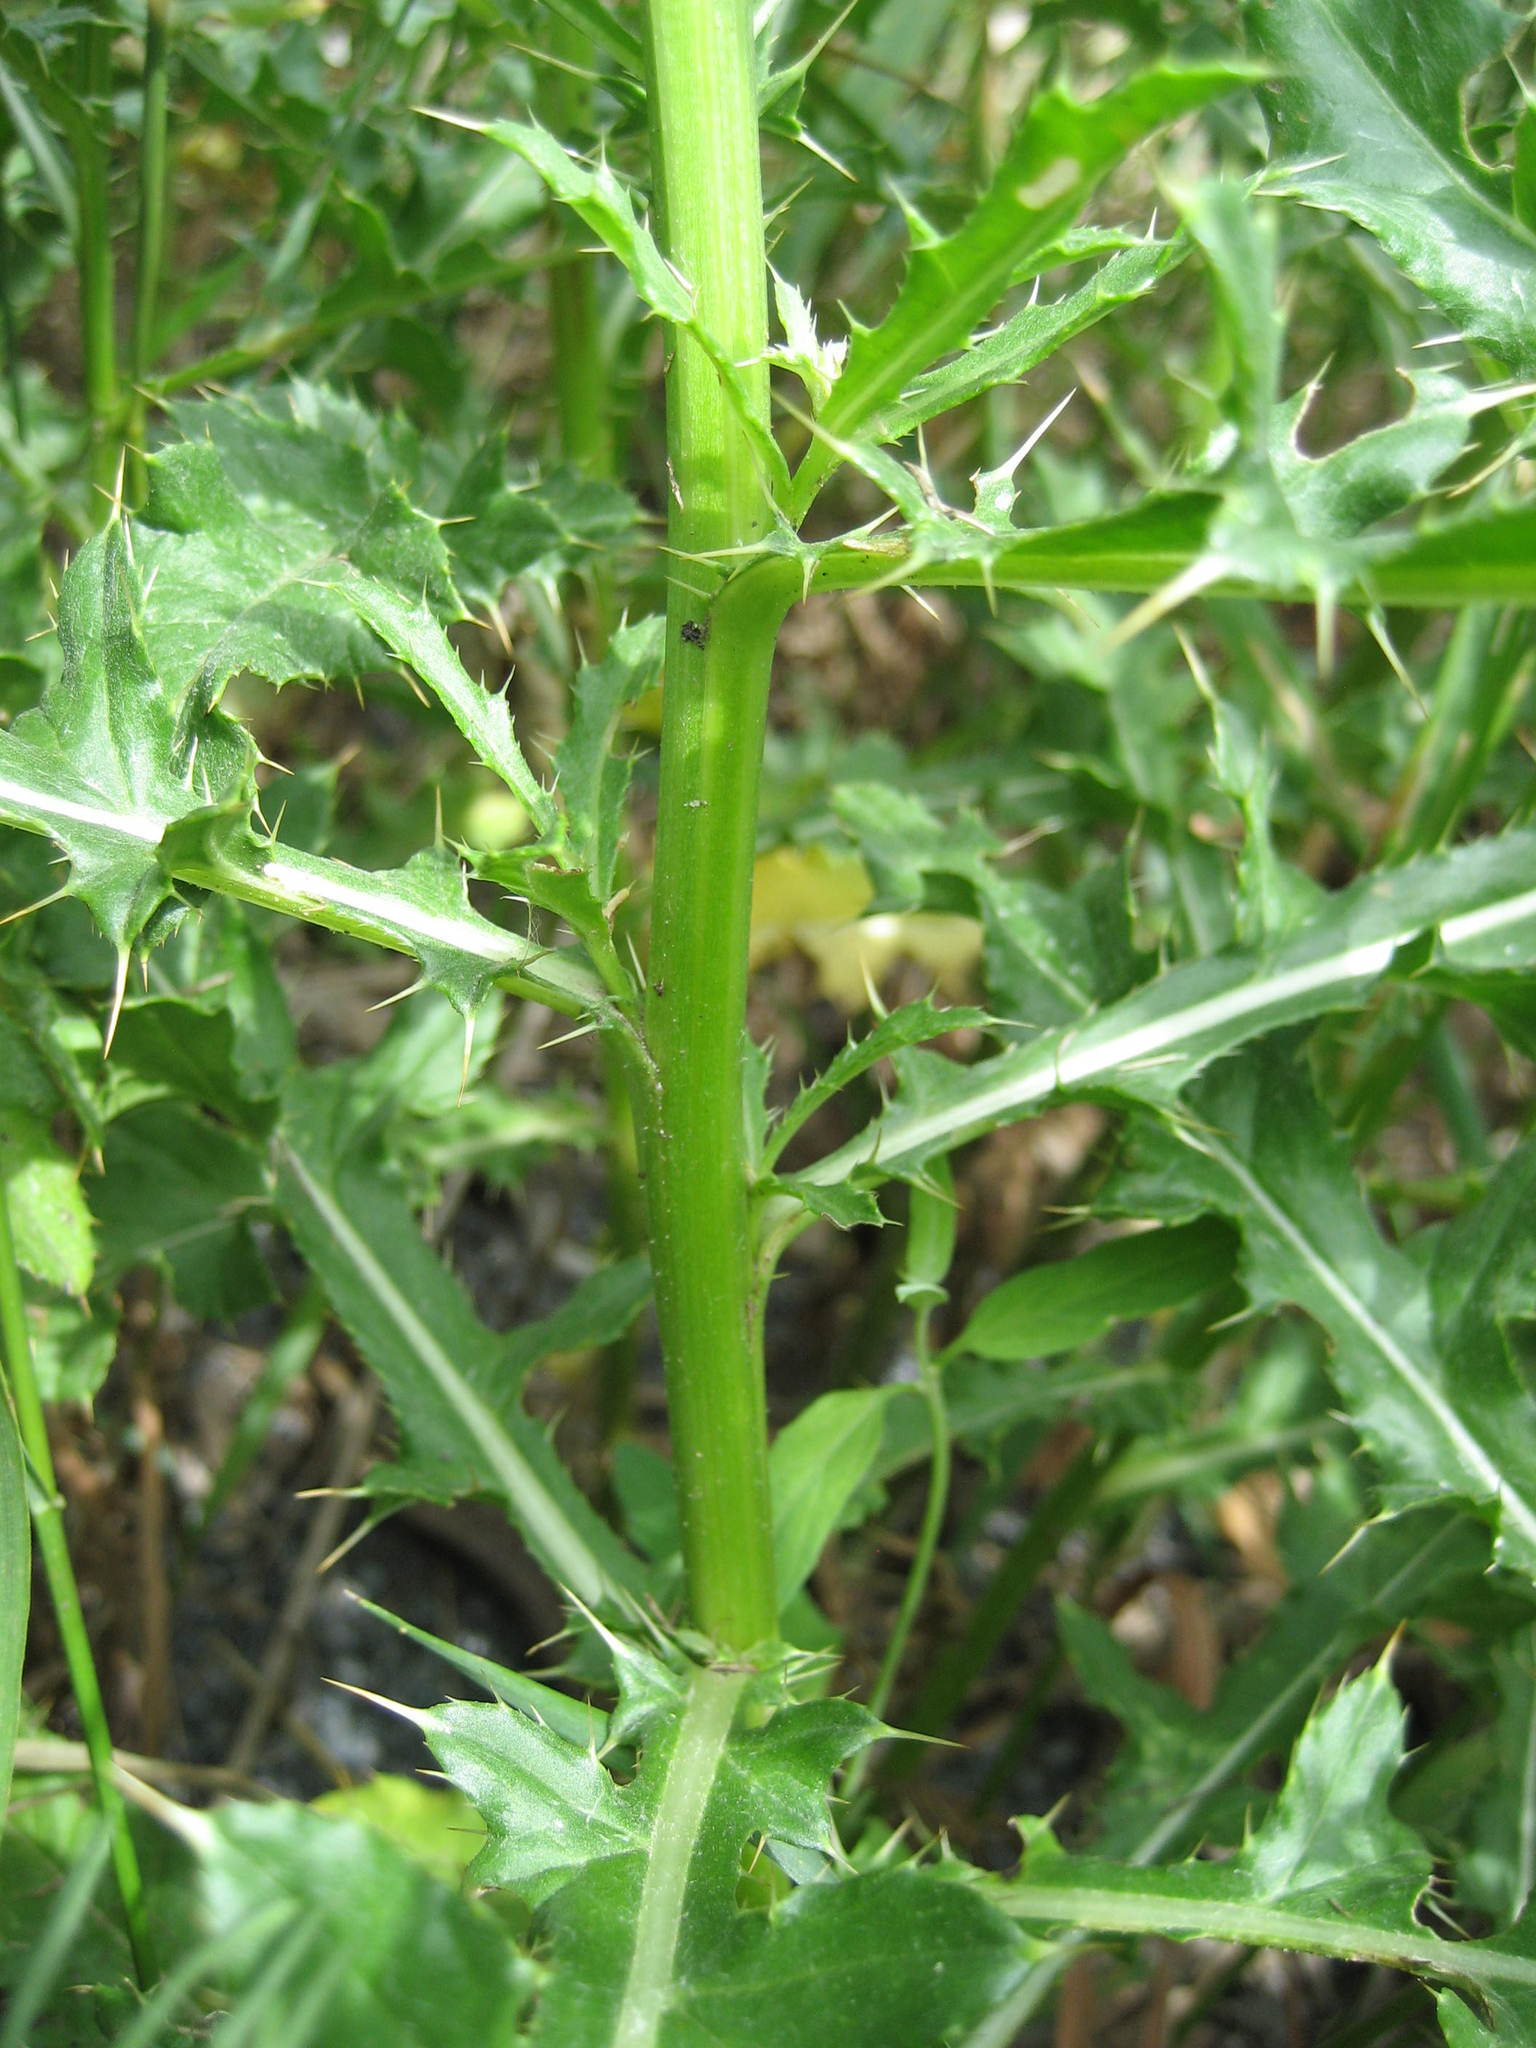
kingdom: Plantae
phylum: Tracheophyta
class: Magnoliopsida
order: Asterales
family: Asteraceae
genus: Cirsium
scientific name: Cirsium arvense
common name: Creeping thistle
